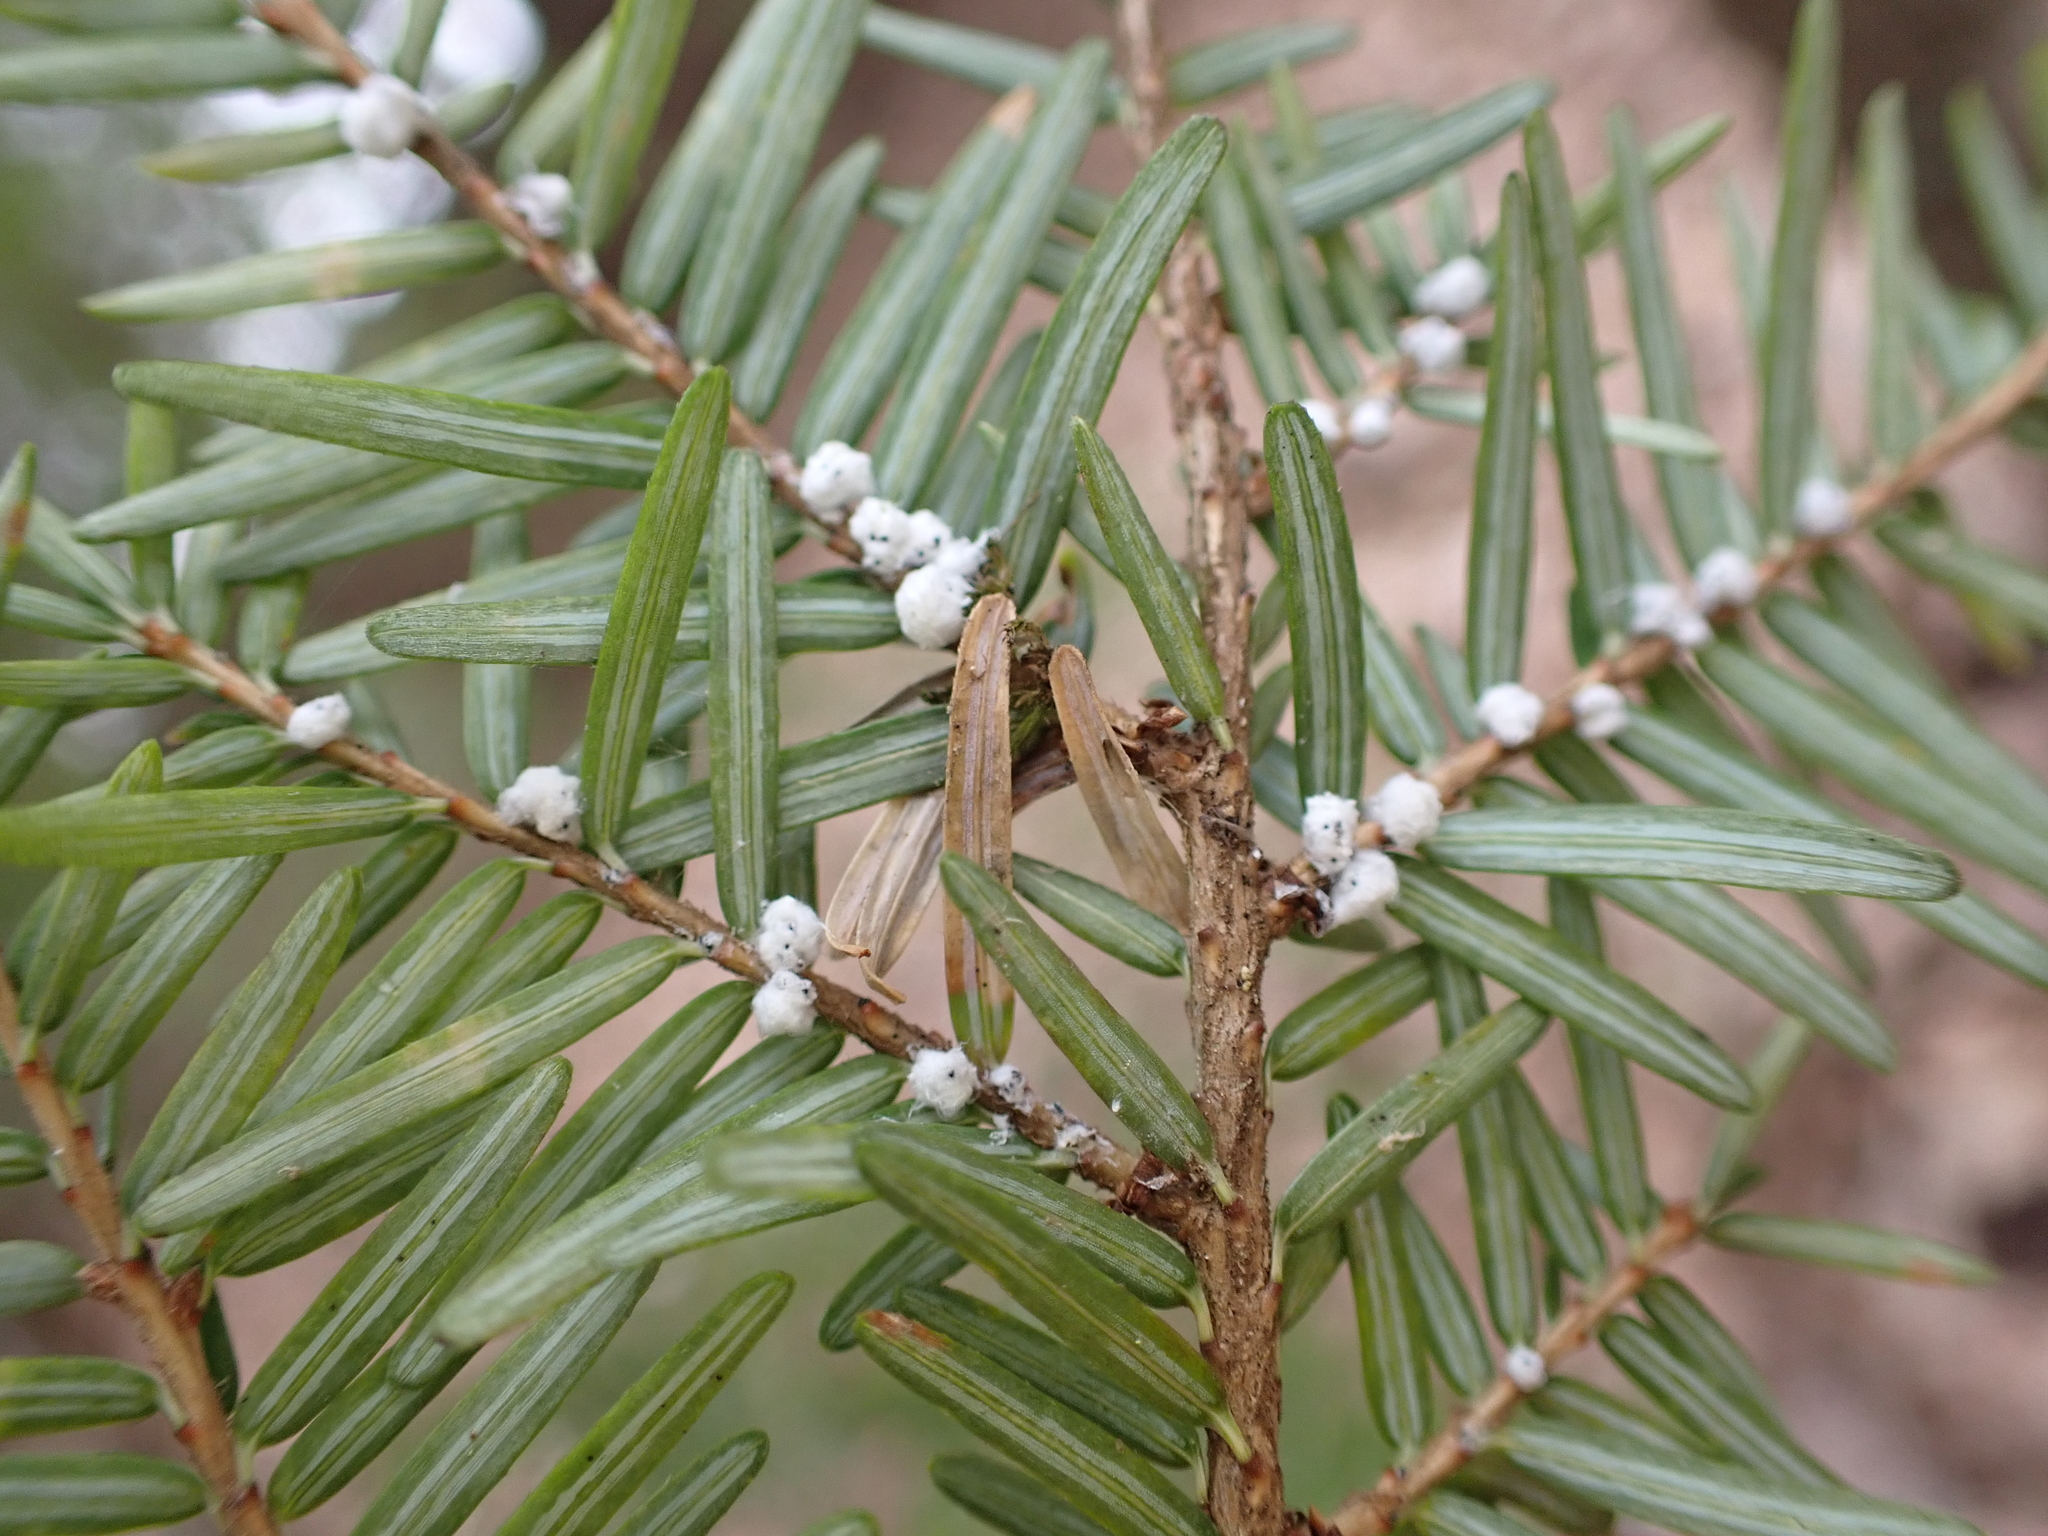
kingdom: Animalia
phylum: Arthropoda
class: Insecta
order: Hemiptera
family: Adelgidae
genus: Adelges
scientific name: Adelges tsugae
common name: Hemlock woolly adelgid
